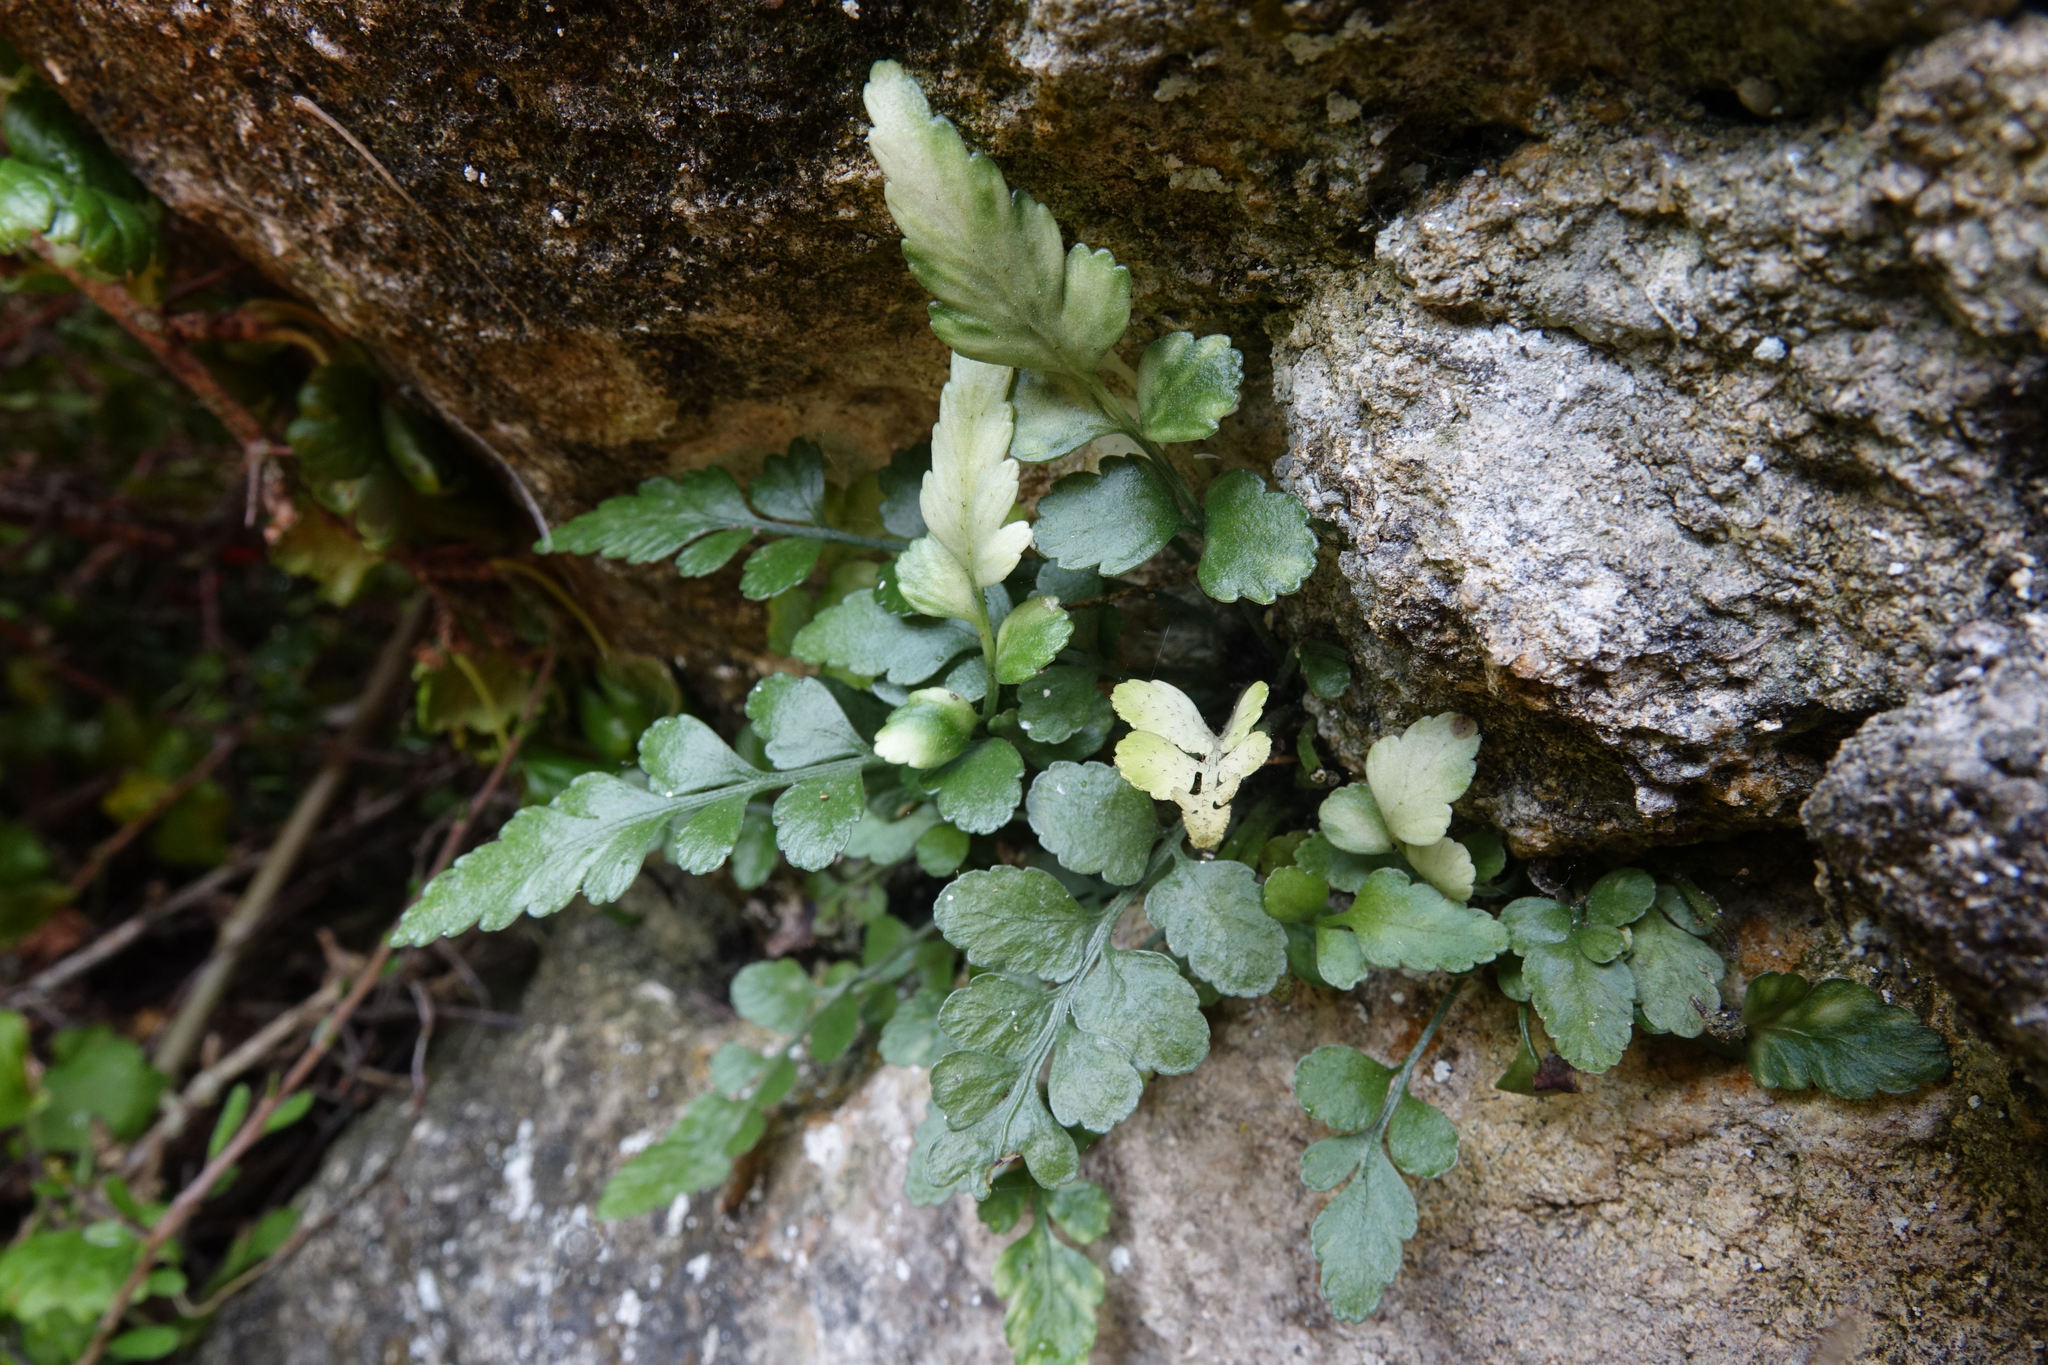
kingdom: Plantae
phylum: Tracheophyta
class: Polypodiopsida
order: Polypodiales
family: Aspleniaceae
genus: Asplenium
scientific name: Asplenium lyallii
